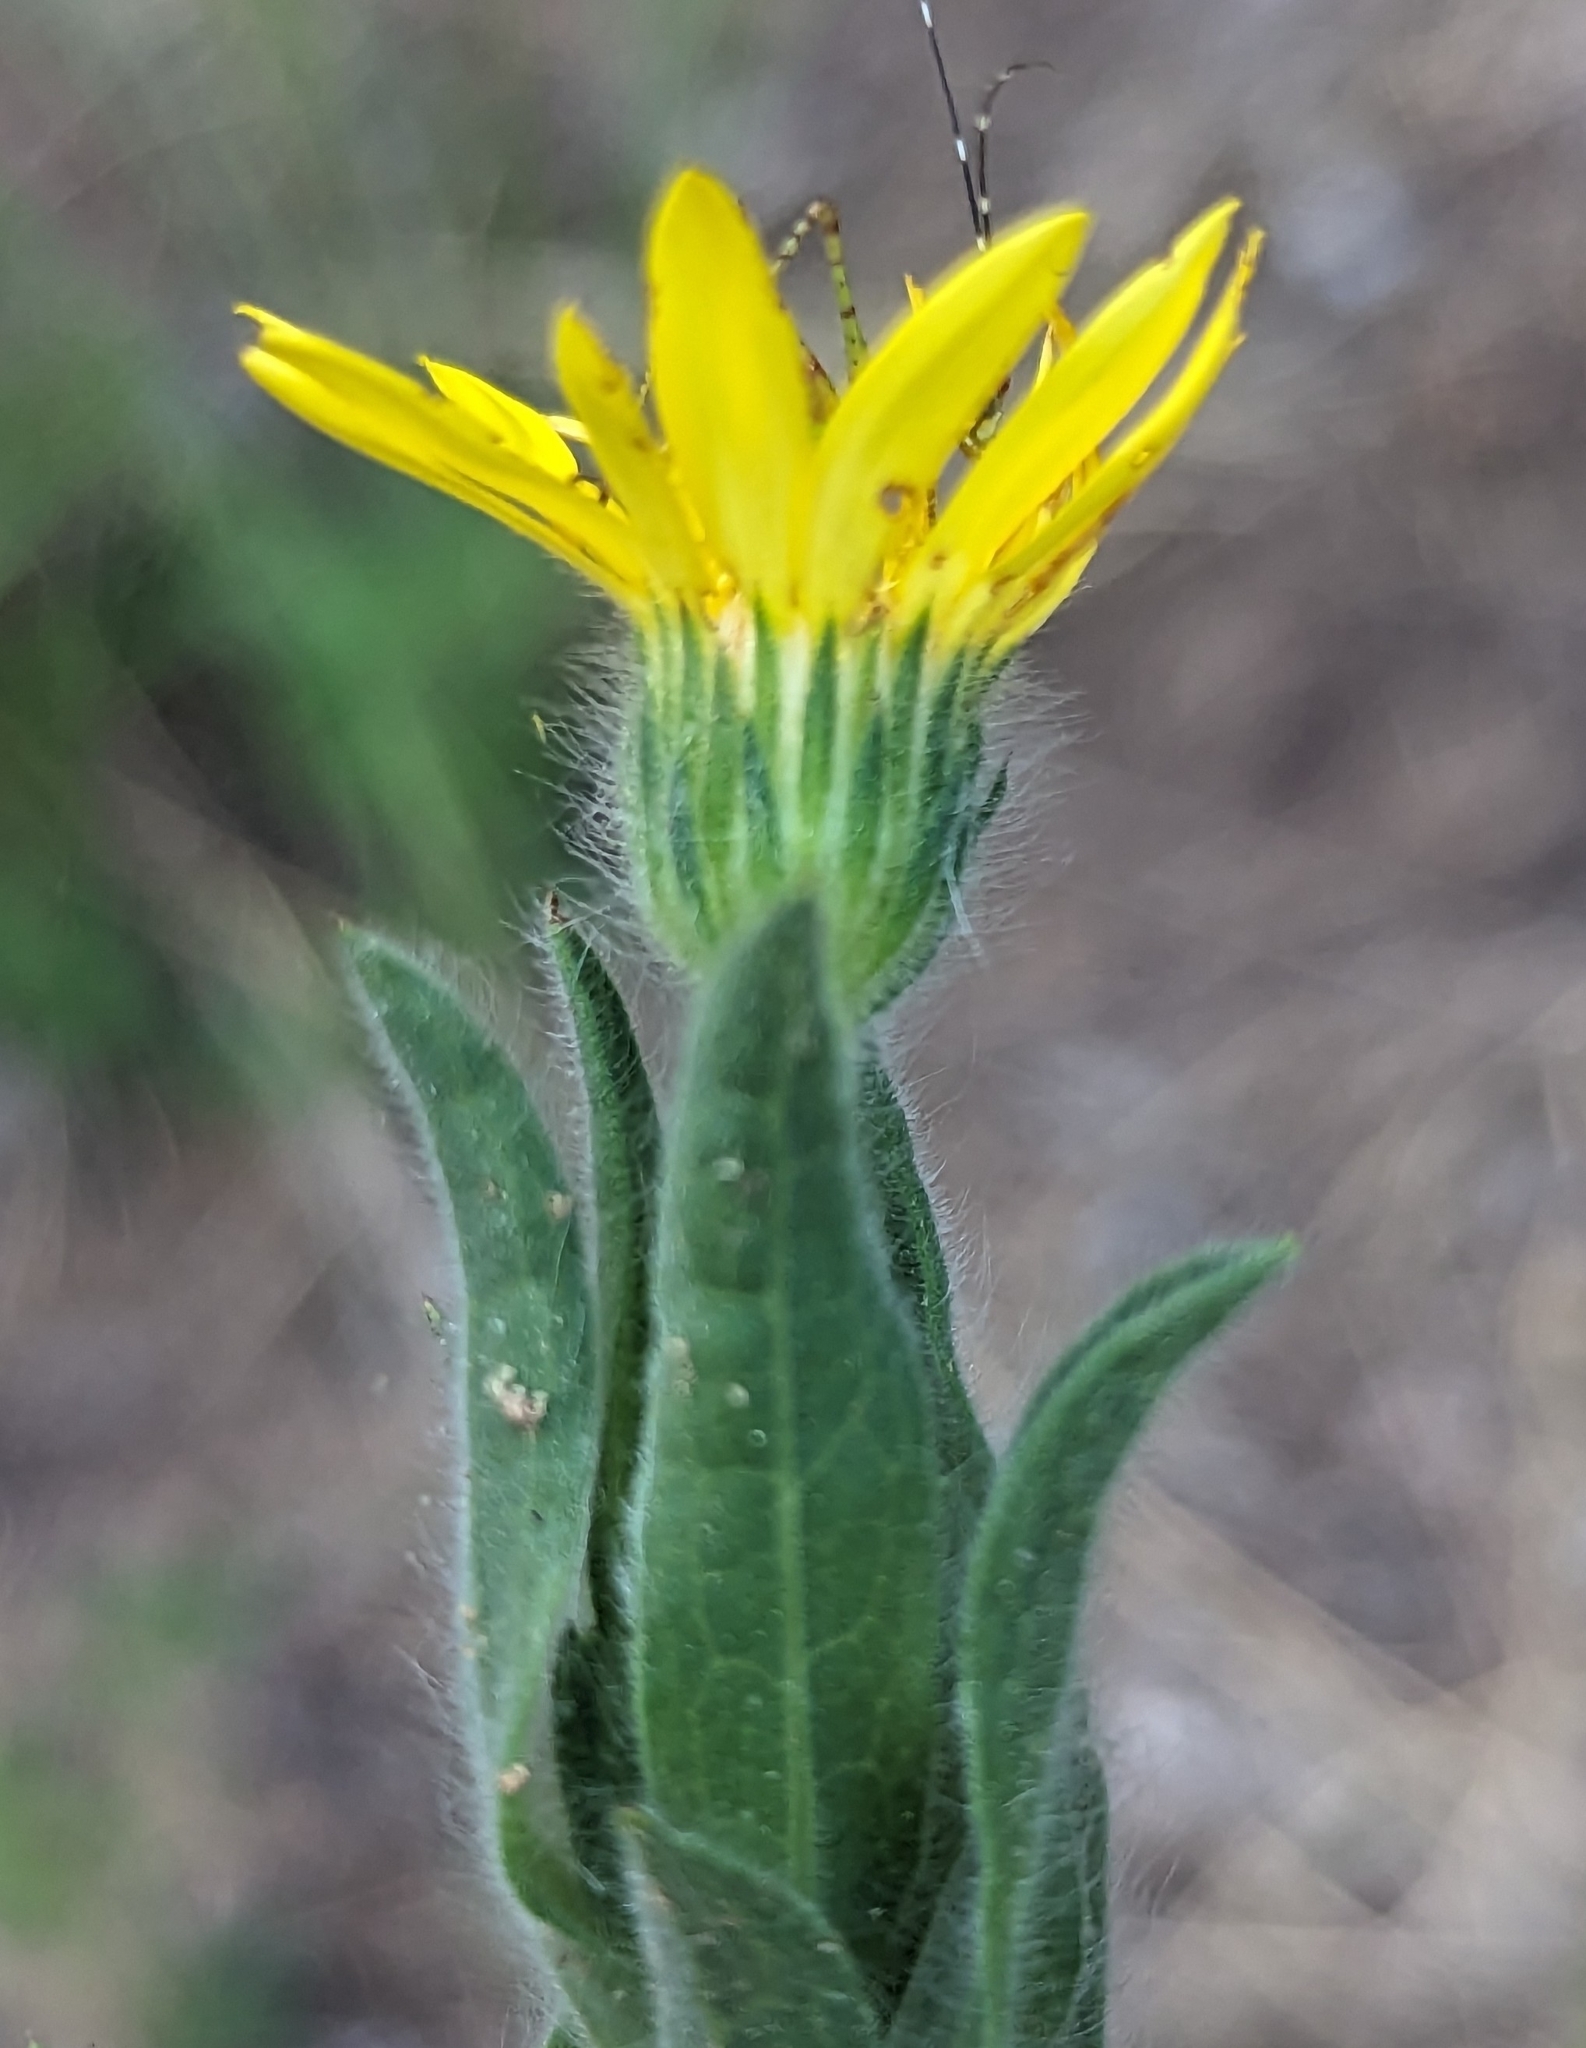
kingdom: Plantae
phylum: Tracheophyta
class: Magnoliopsida
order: Asterales
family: Asteraceae
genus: Bradburia
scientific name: Bradburia pilosa
